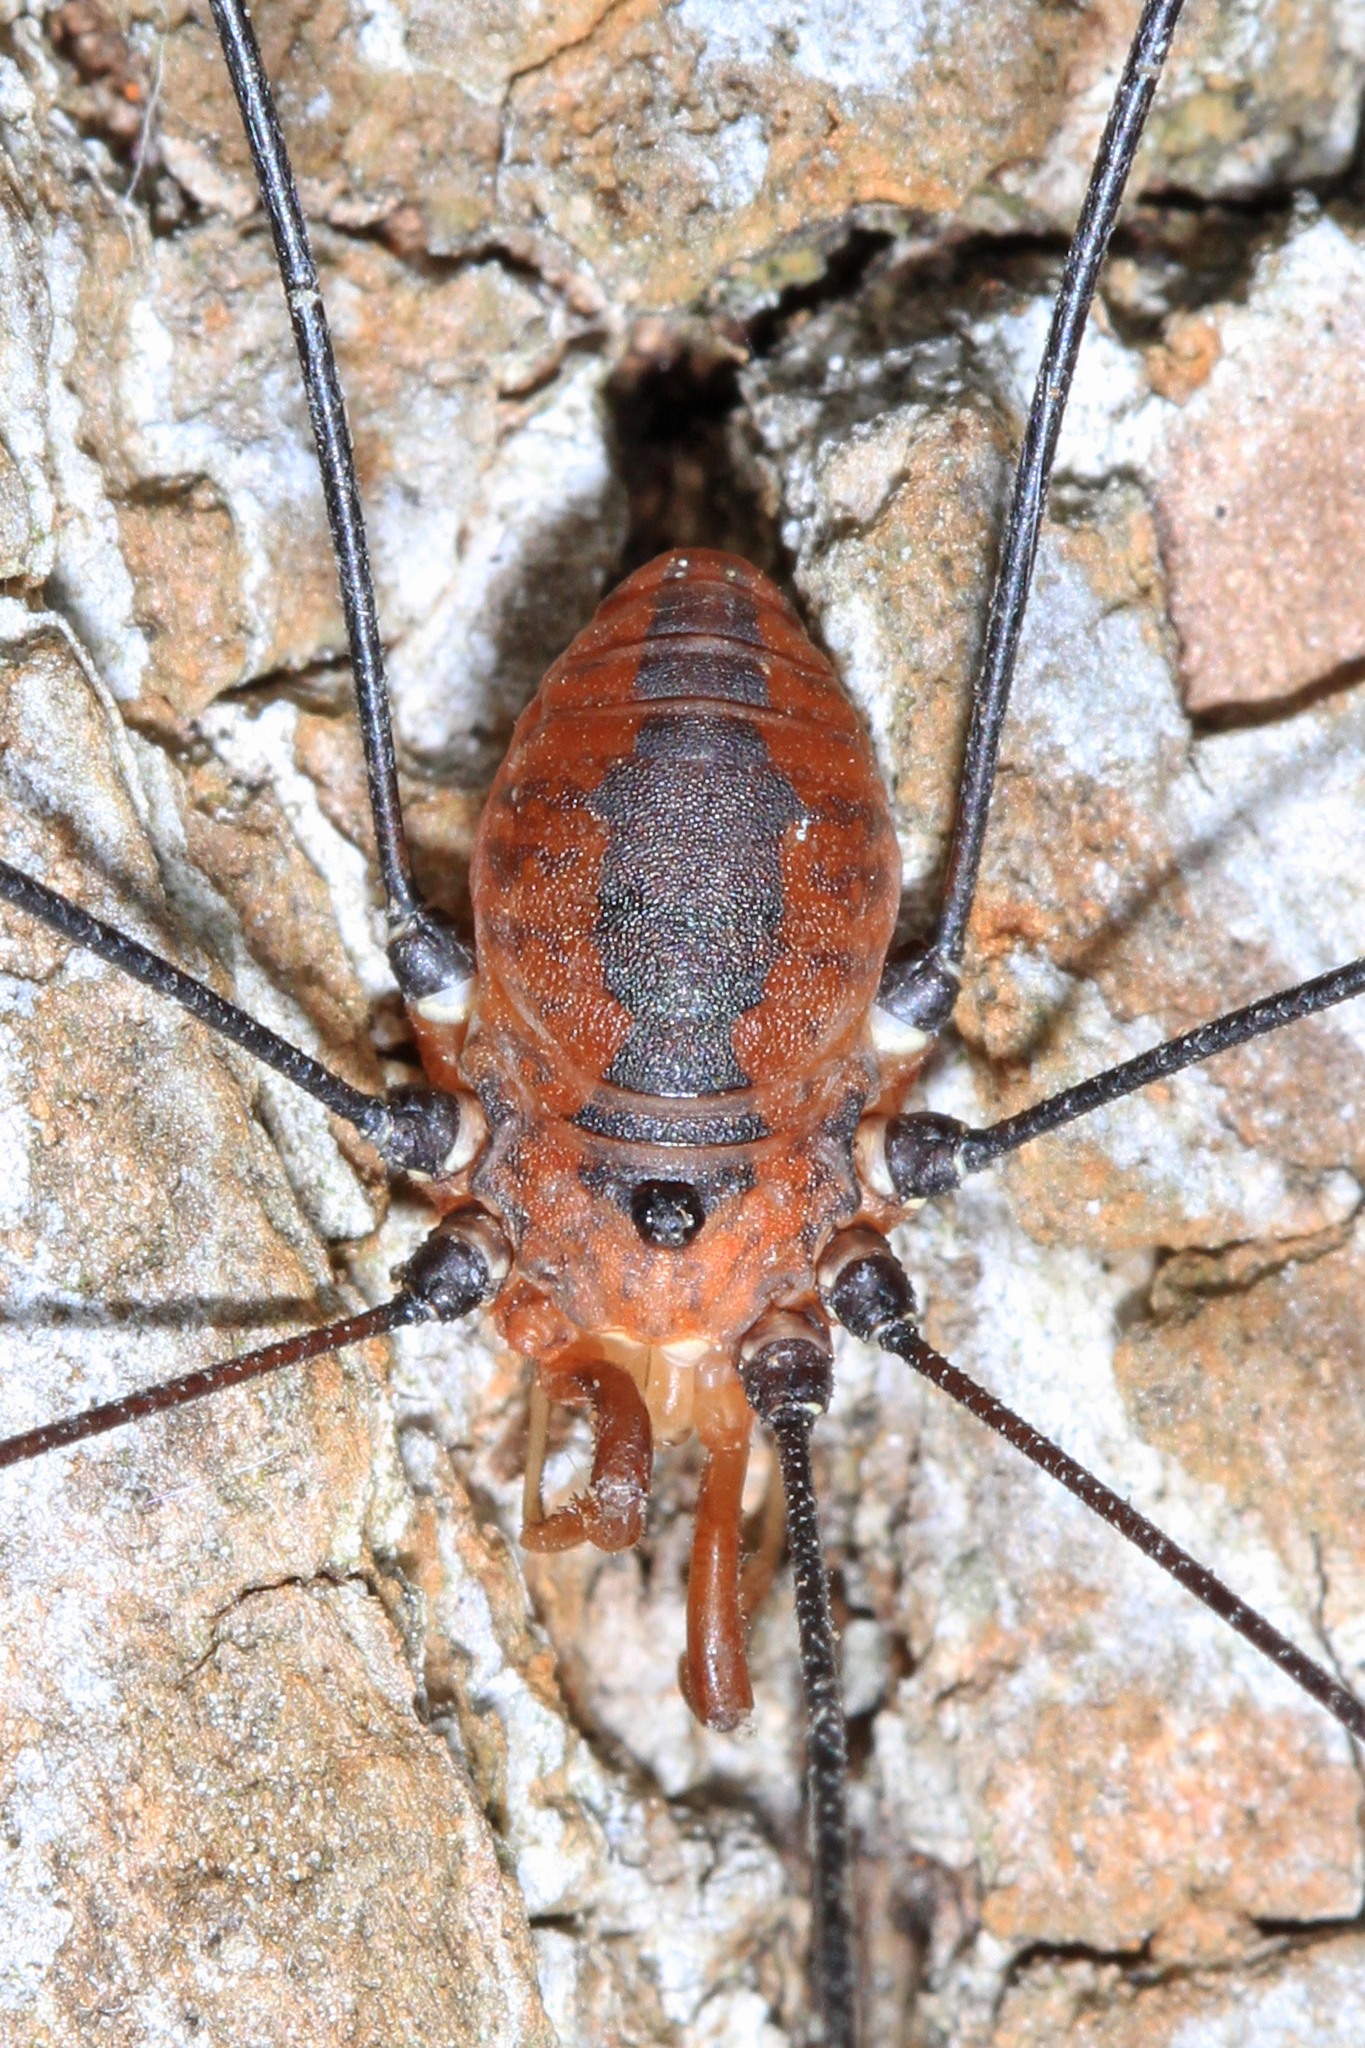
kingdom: Animalia
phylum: Arthropoda
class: Arachnida
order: Opiliones
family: Sclerosomatidae
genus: Leiobunum
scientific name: Leiobunum vittatum
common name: Eastern harvestman
